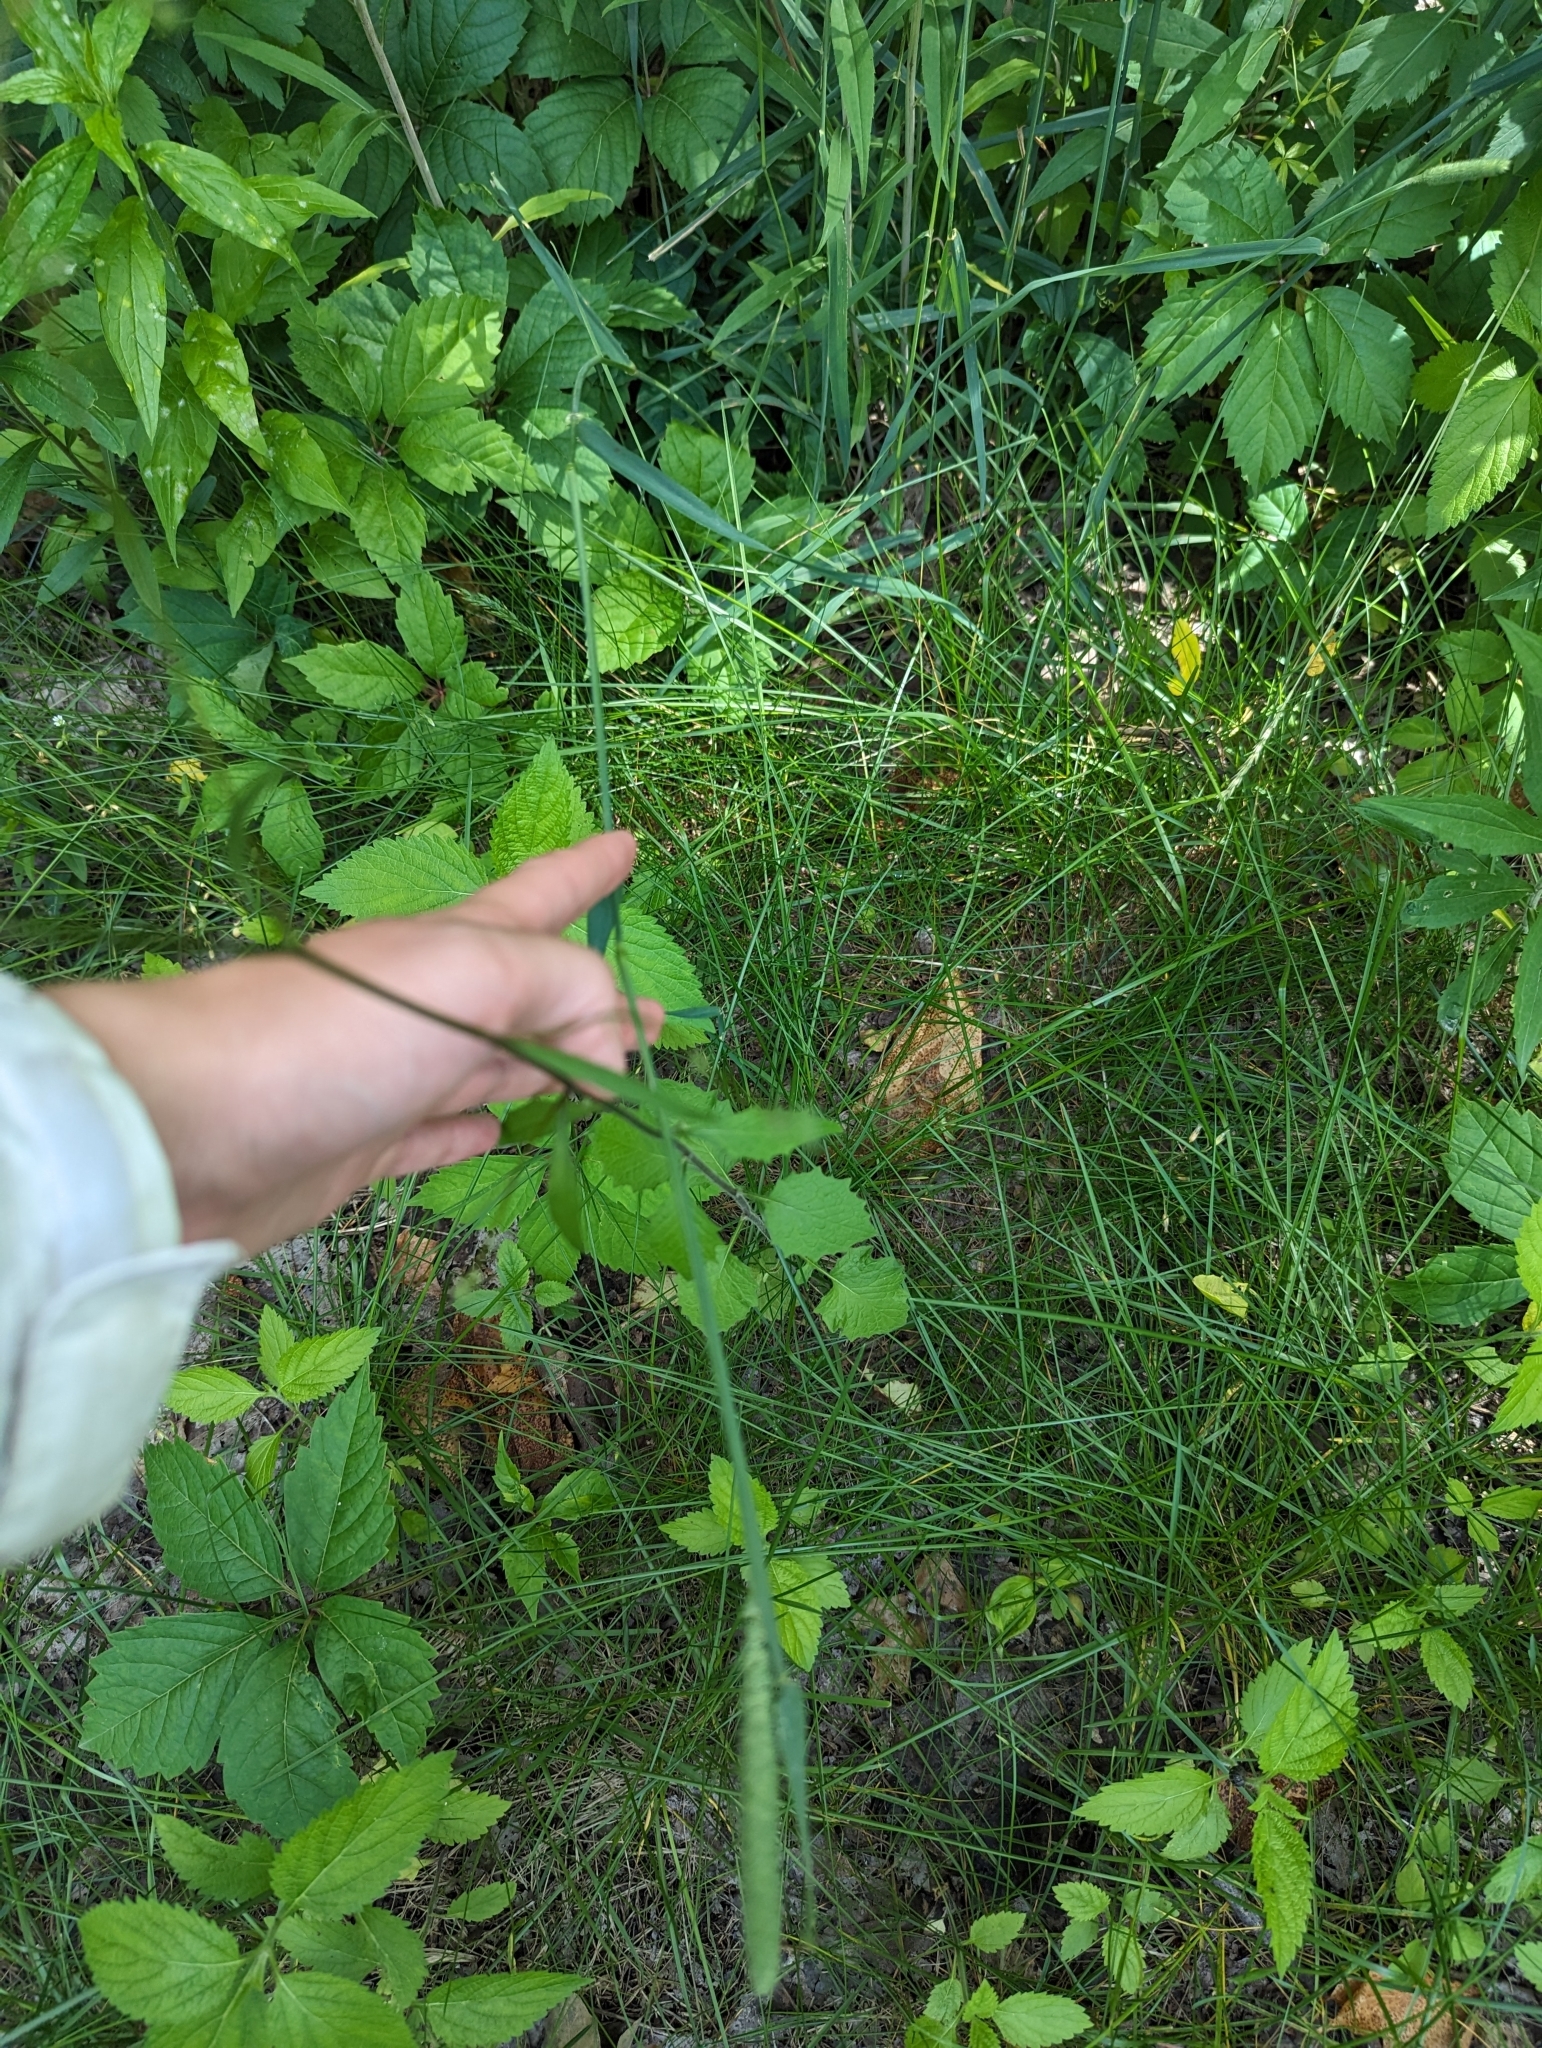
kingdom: Plantae
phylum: Tracheophyta
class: Magnoliopsida
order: Asterales
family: Asteraceae
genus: Lapsana
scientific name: Lapsana communis
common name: Nipplewort
